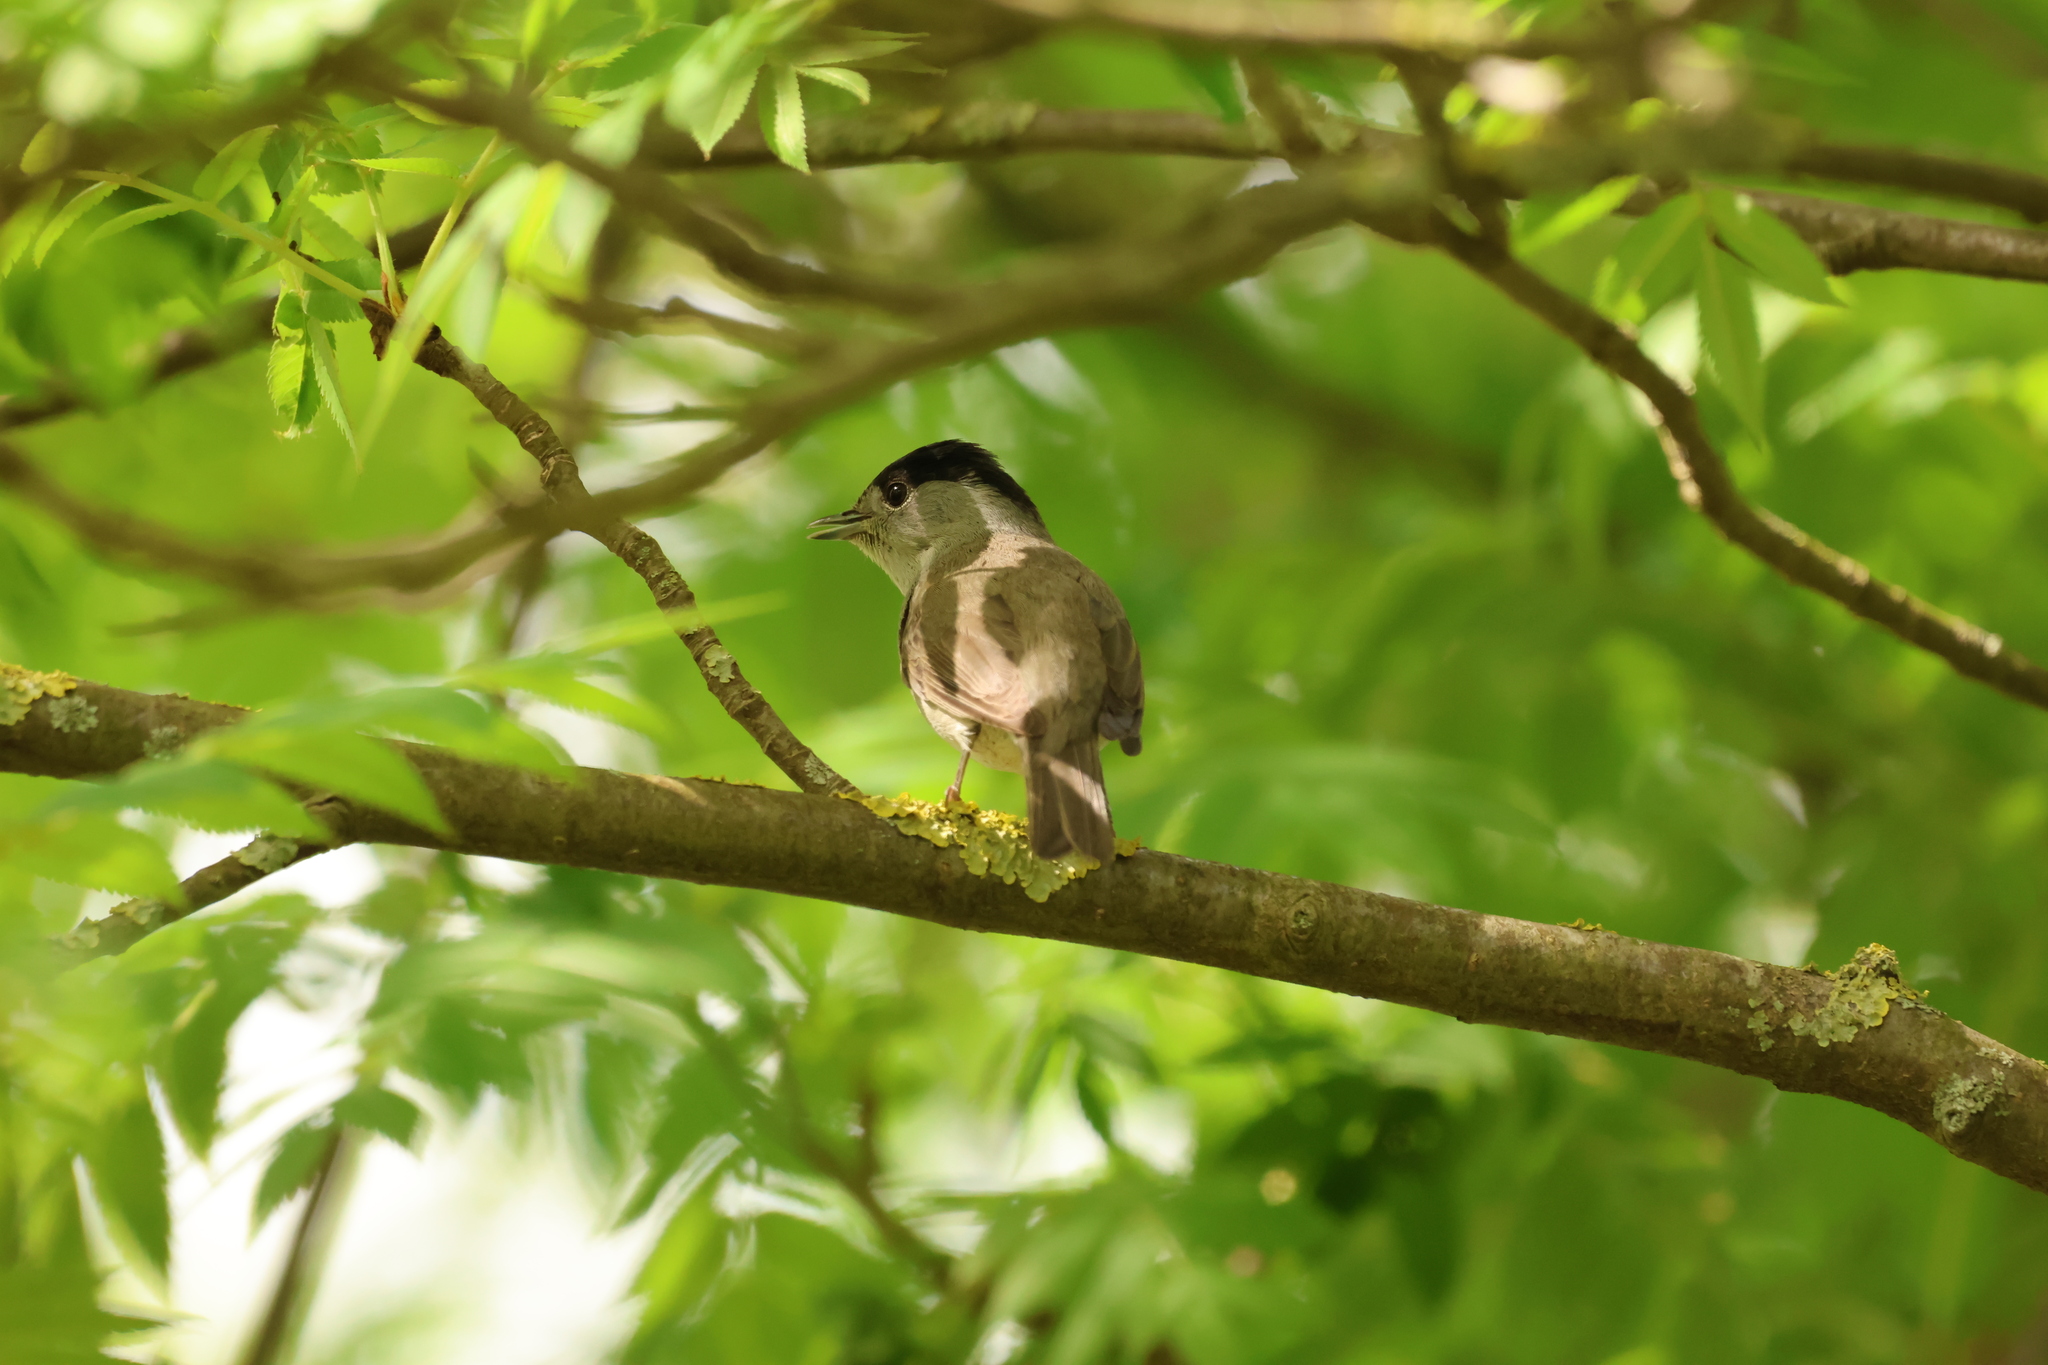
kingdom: Animalia
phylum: Chordata
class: Aves
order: Passeriformes
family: Sylviidae
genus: Sylvia
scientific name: Sylvia atricapilla
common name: Eurasian blackcap
